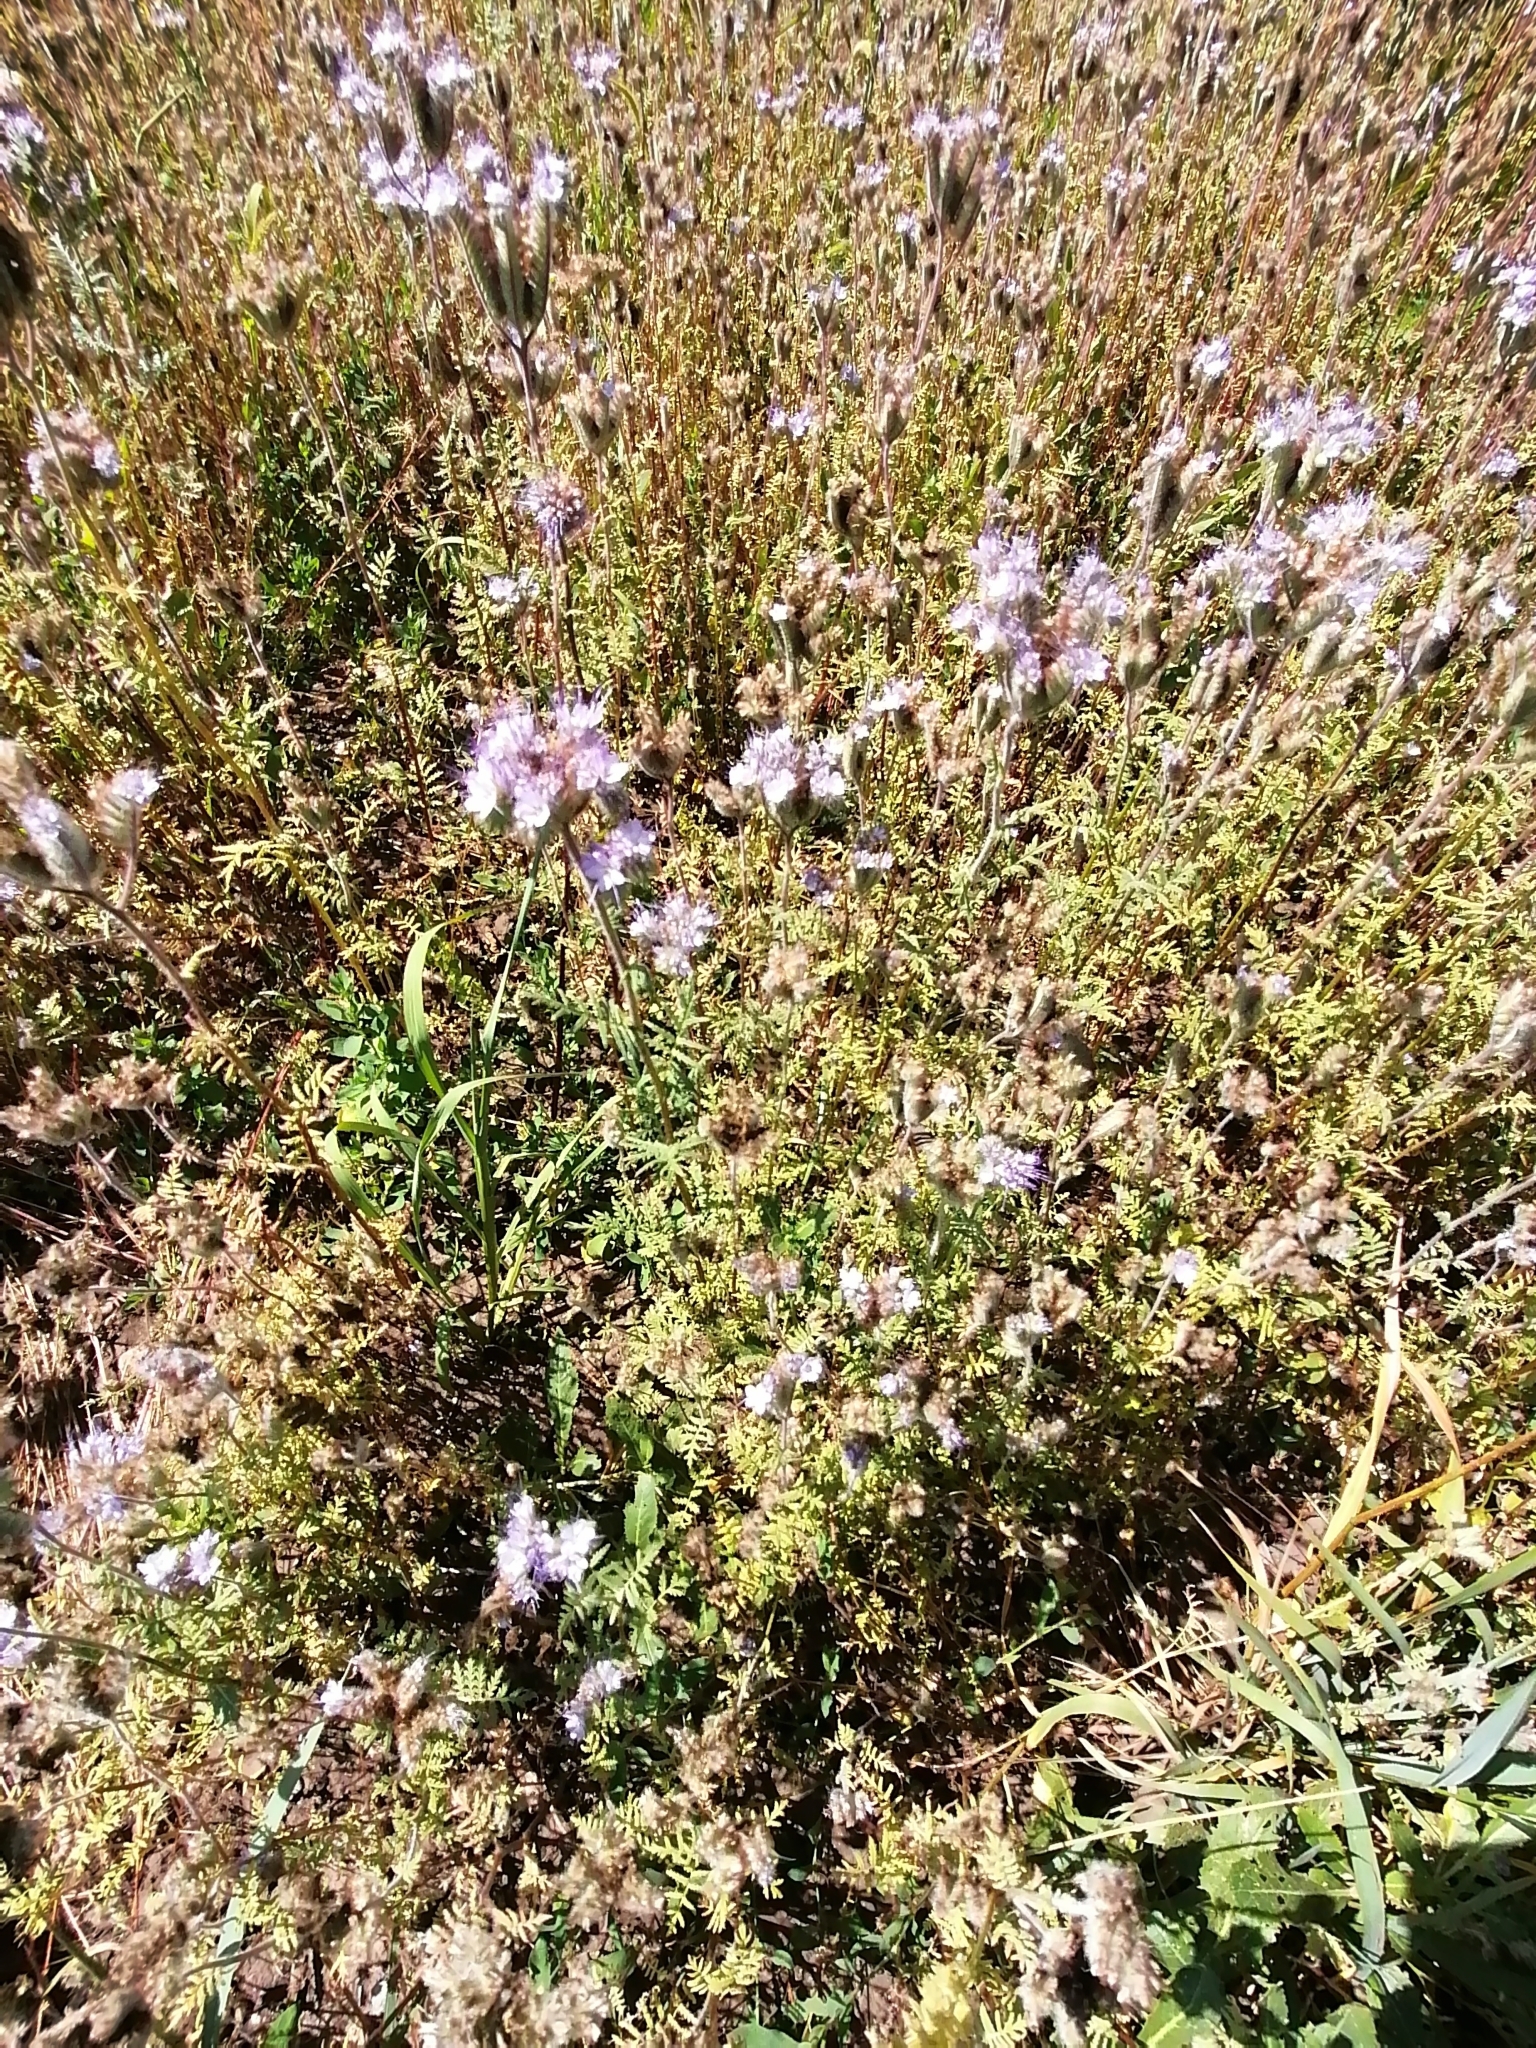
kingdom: Plantae
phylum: Tracheophyta
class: Magnoliopsida
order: Boraginales
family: Hydrophyllaceae
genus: Phacelia
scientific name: Phacelia tanacetifolia
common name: Phacelia
